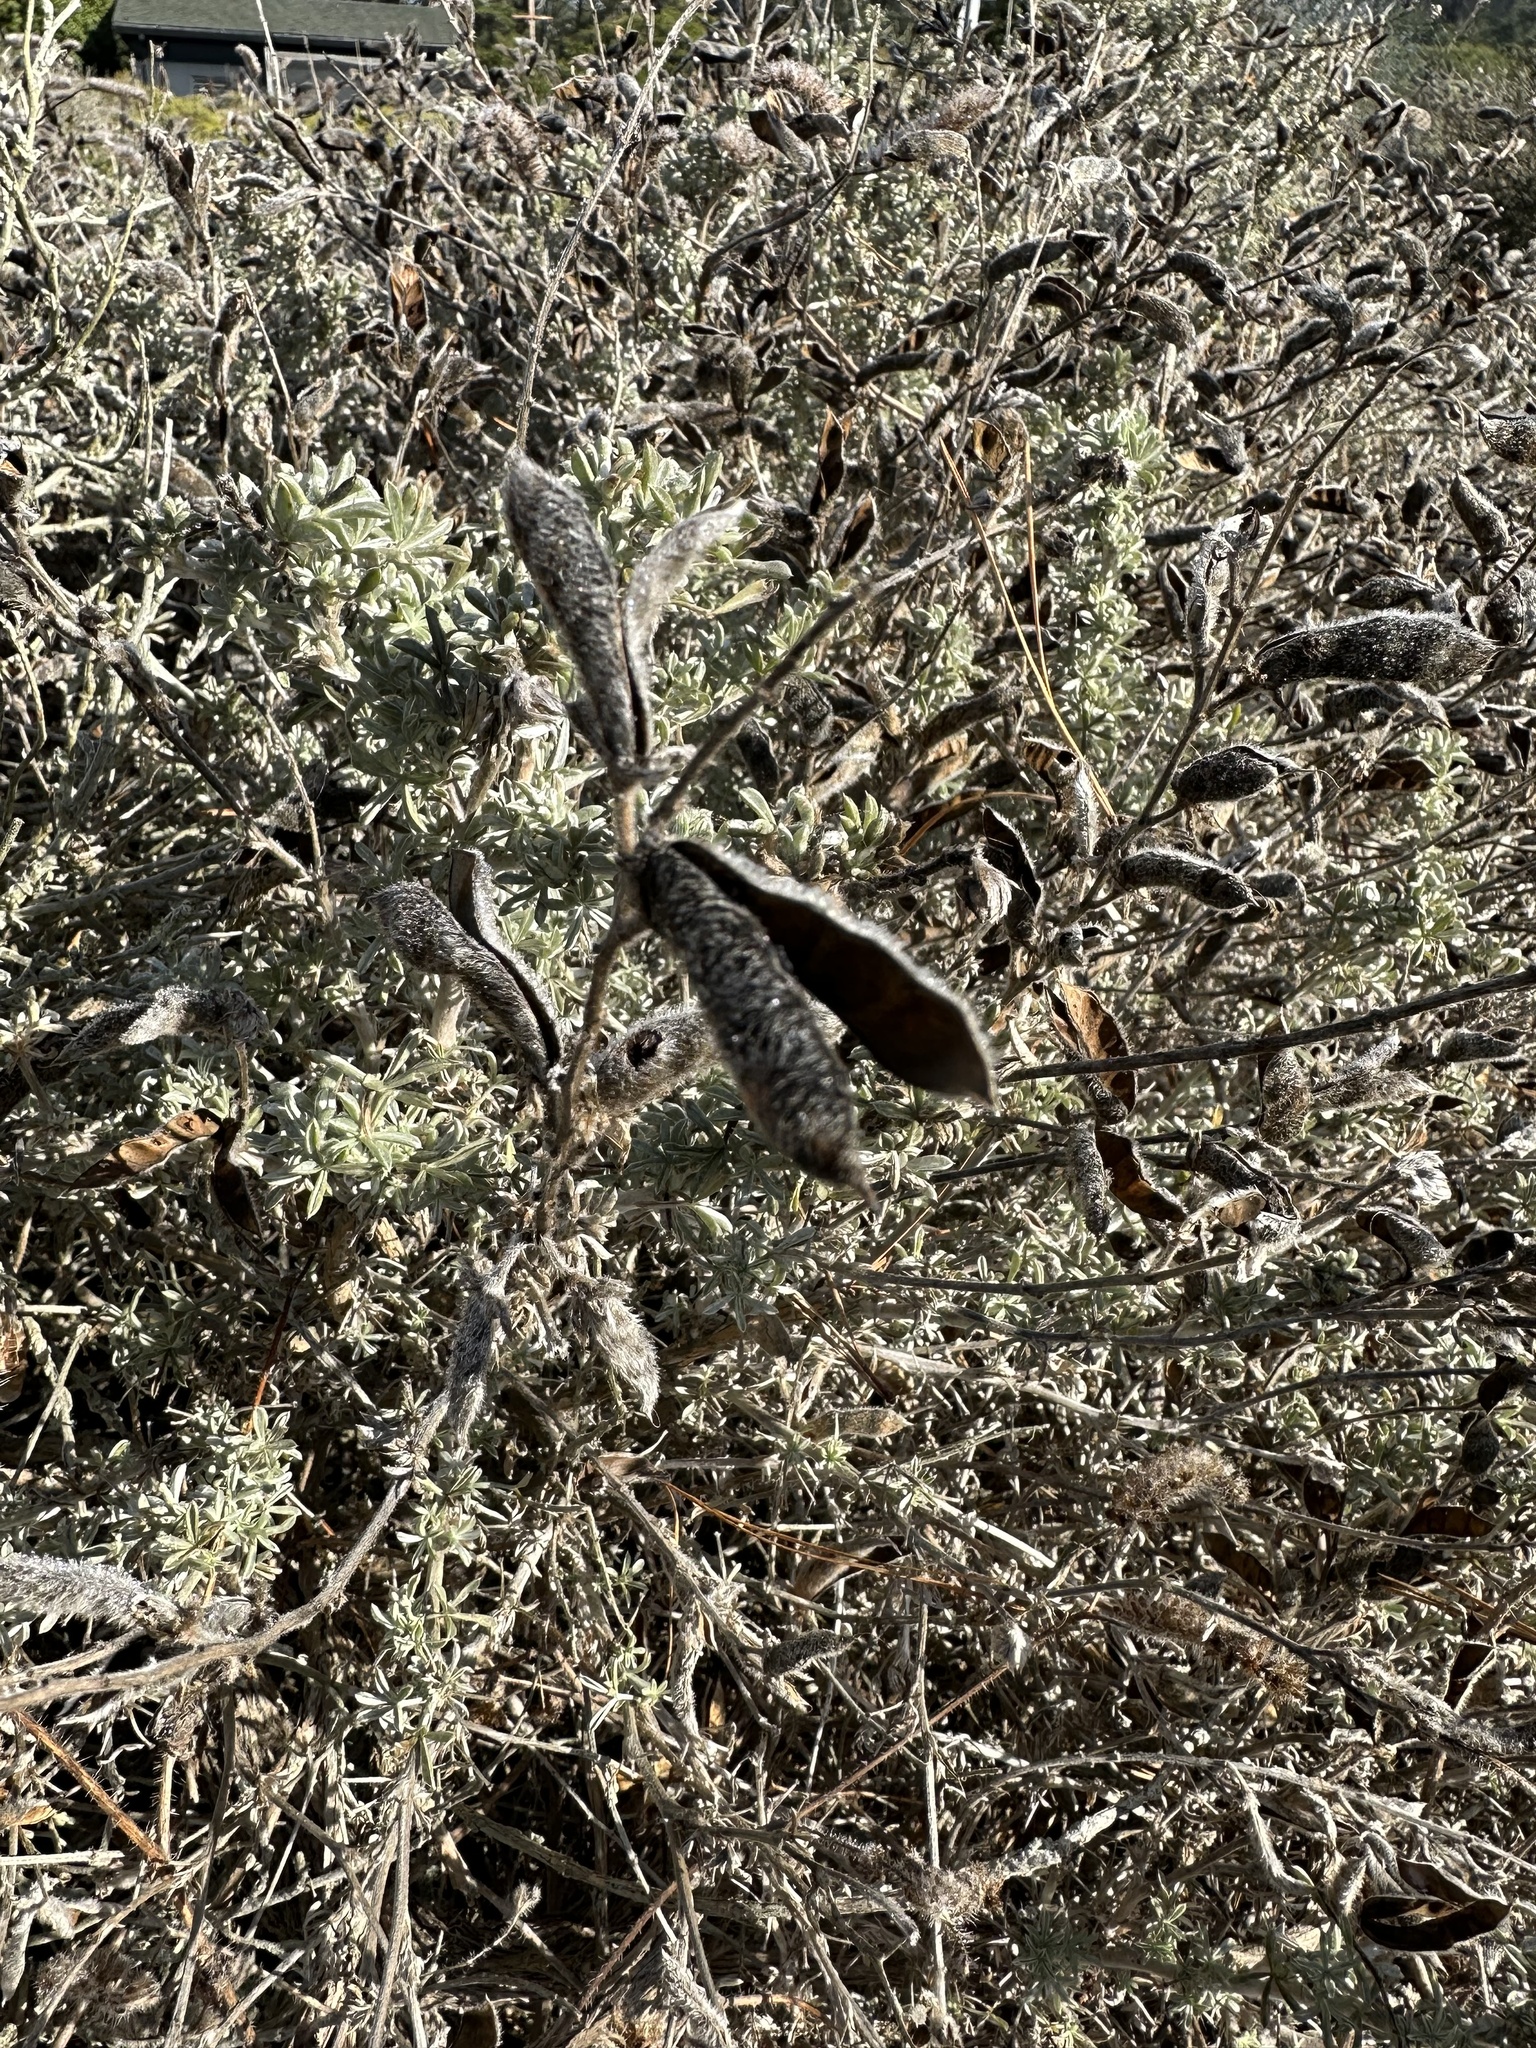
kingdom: Plantae
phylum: Tracheophyta
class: Magnoliopsida
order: Fabales
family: Fabaceae
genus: Lupinus
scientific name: Lupinus chamissonis
